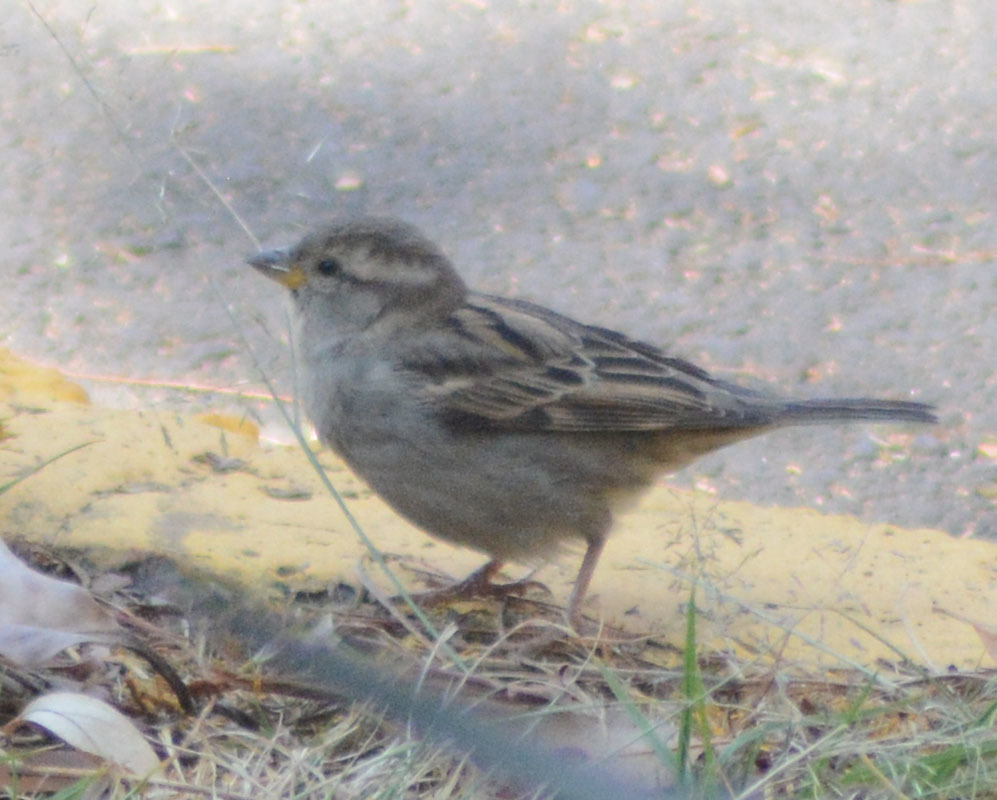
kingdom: Animalia
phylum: Chordata
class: Aves
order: Passeriformes
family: Passeridae
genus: Passer
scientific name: Passer domesticus
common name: House sparrow
